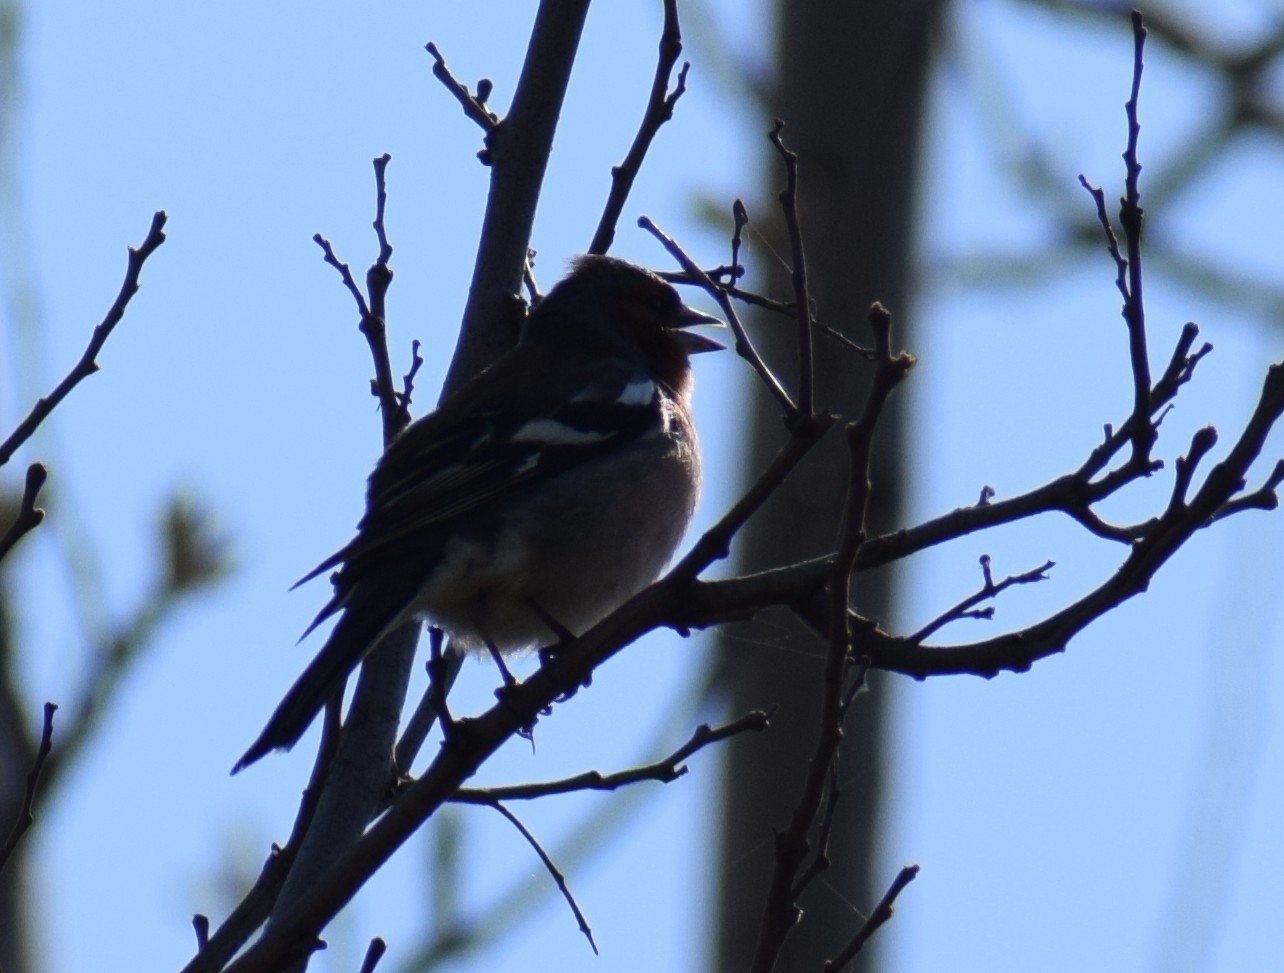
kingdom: Animalia
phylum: Chordata
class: Aves
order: Passeriformes
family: Fringillidae
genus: Fringilla
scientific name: Fringilla coelebs
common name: Common chaffinch
